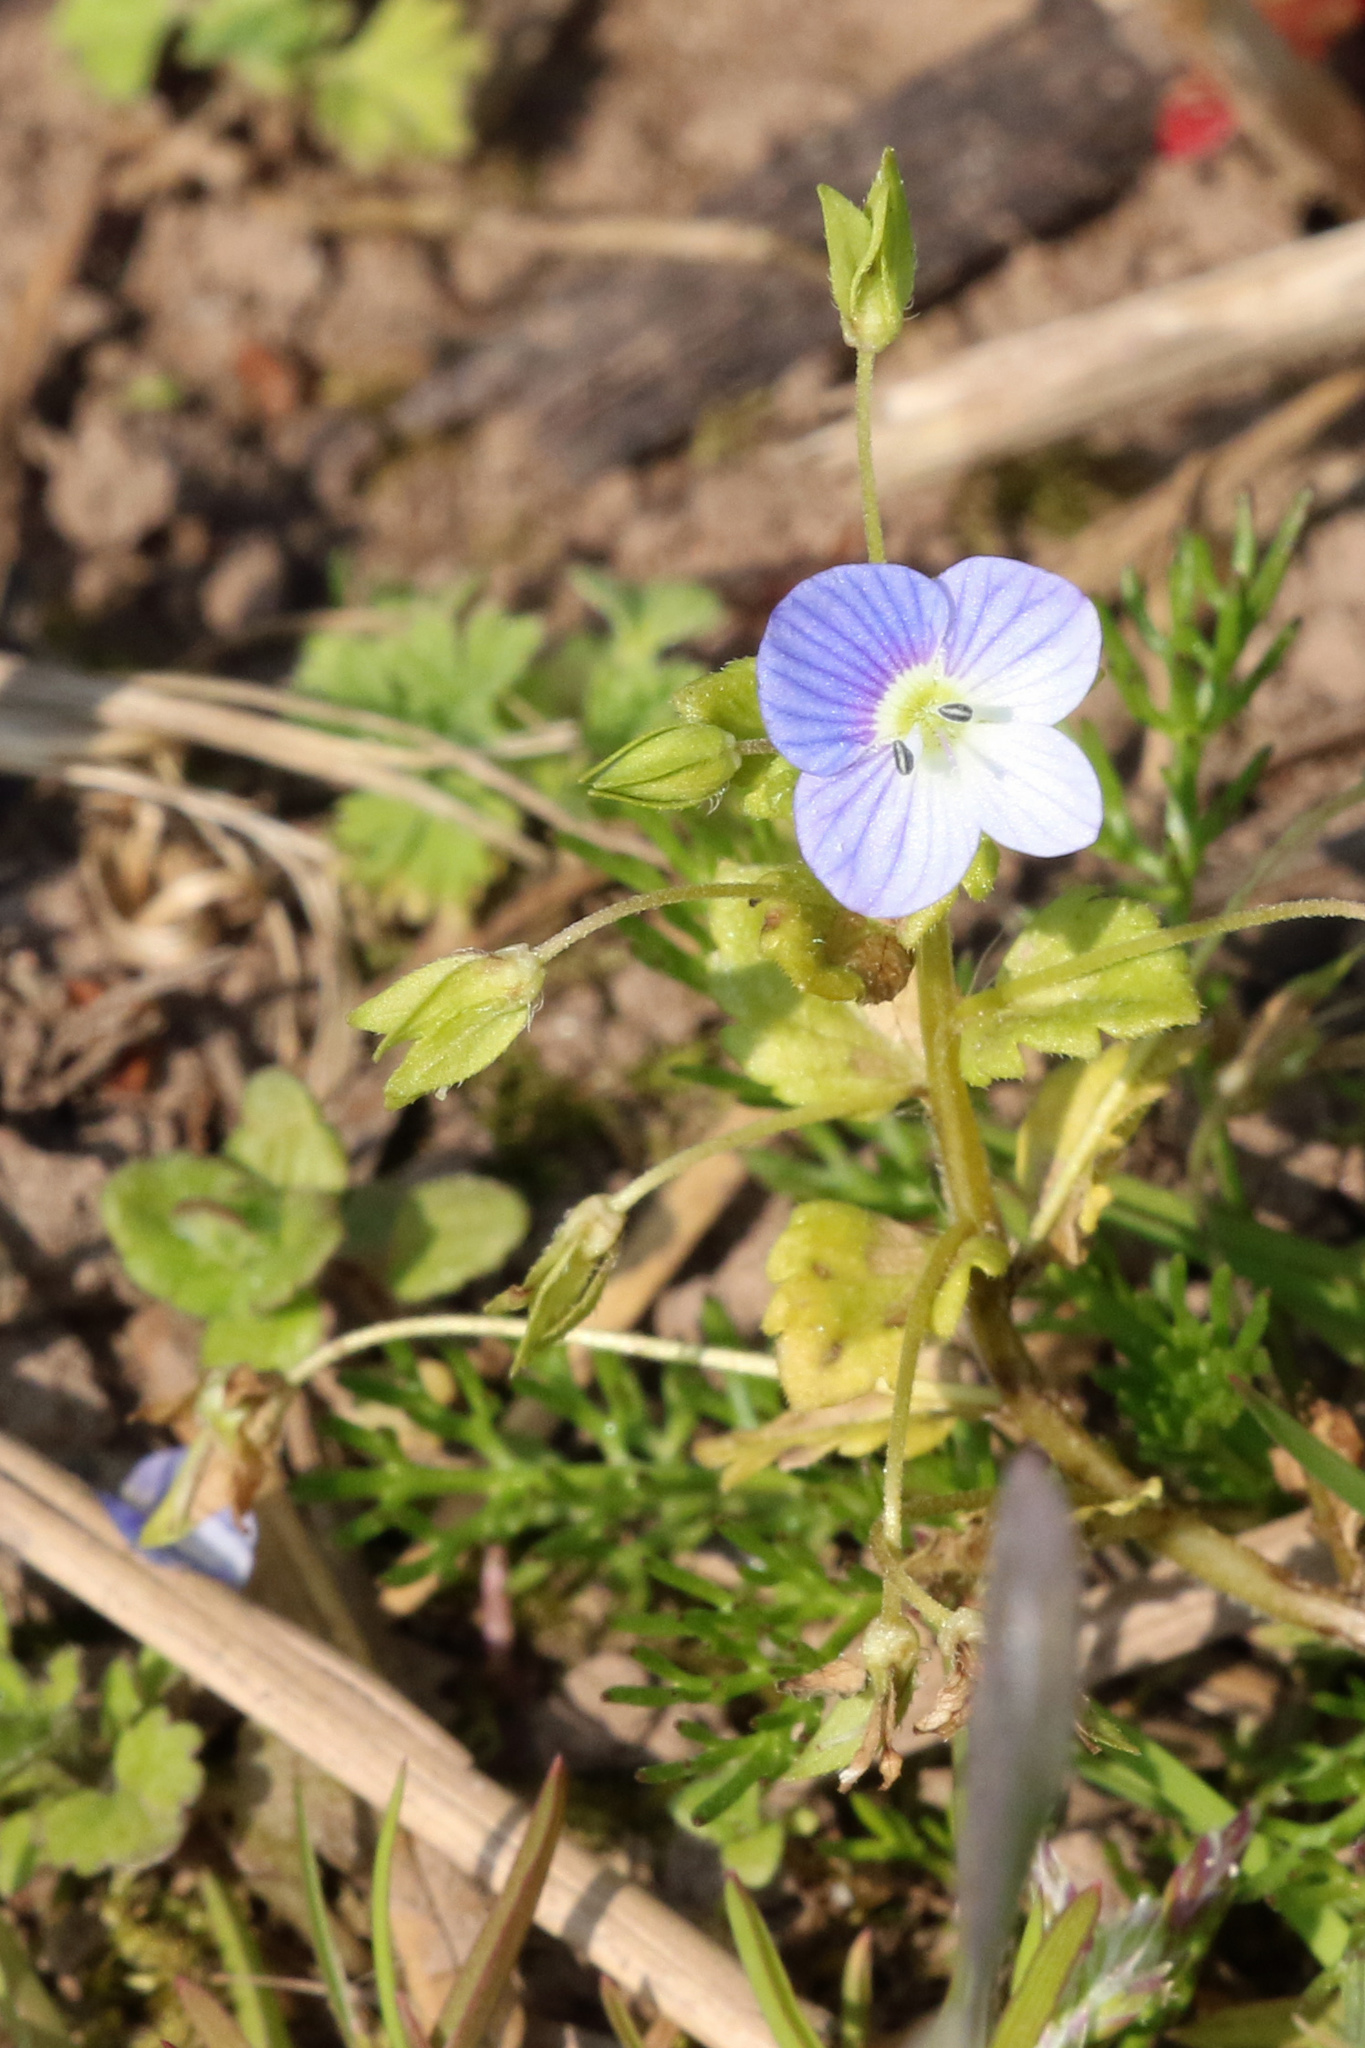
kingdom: Plantae
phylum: Tracheophyta
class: Magnoliopsida
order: Lamiales
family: Plantaginaceae
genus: Veronica
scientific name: Veronica persica
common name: Common field-speedwell
